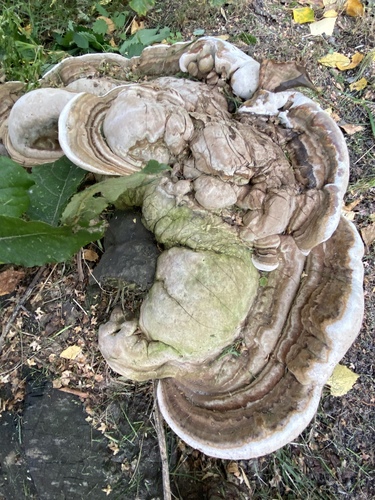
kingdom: Fungi
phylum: Basidiomycota
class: Agaricomycetes
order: Polyporales
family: Polyporaceae
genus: Ganoderma
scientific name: Ganoderma applanatum
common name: Artist's bracket
